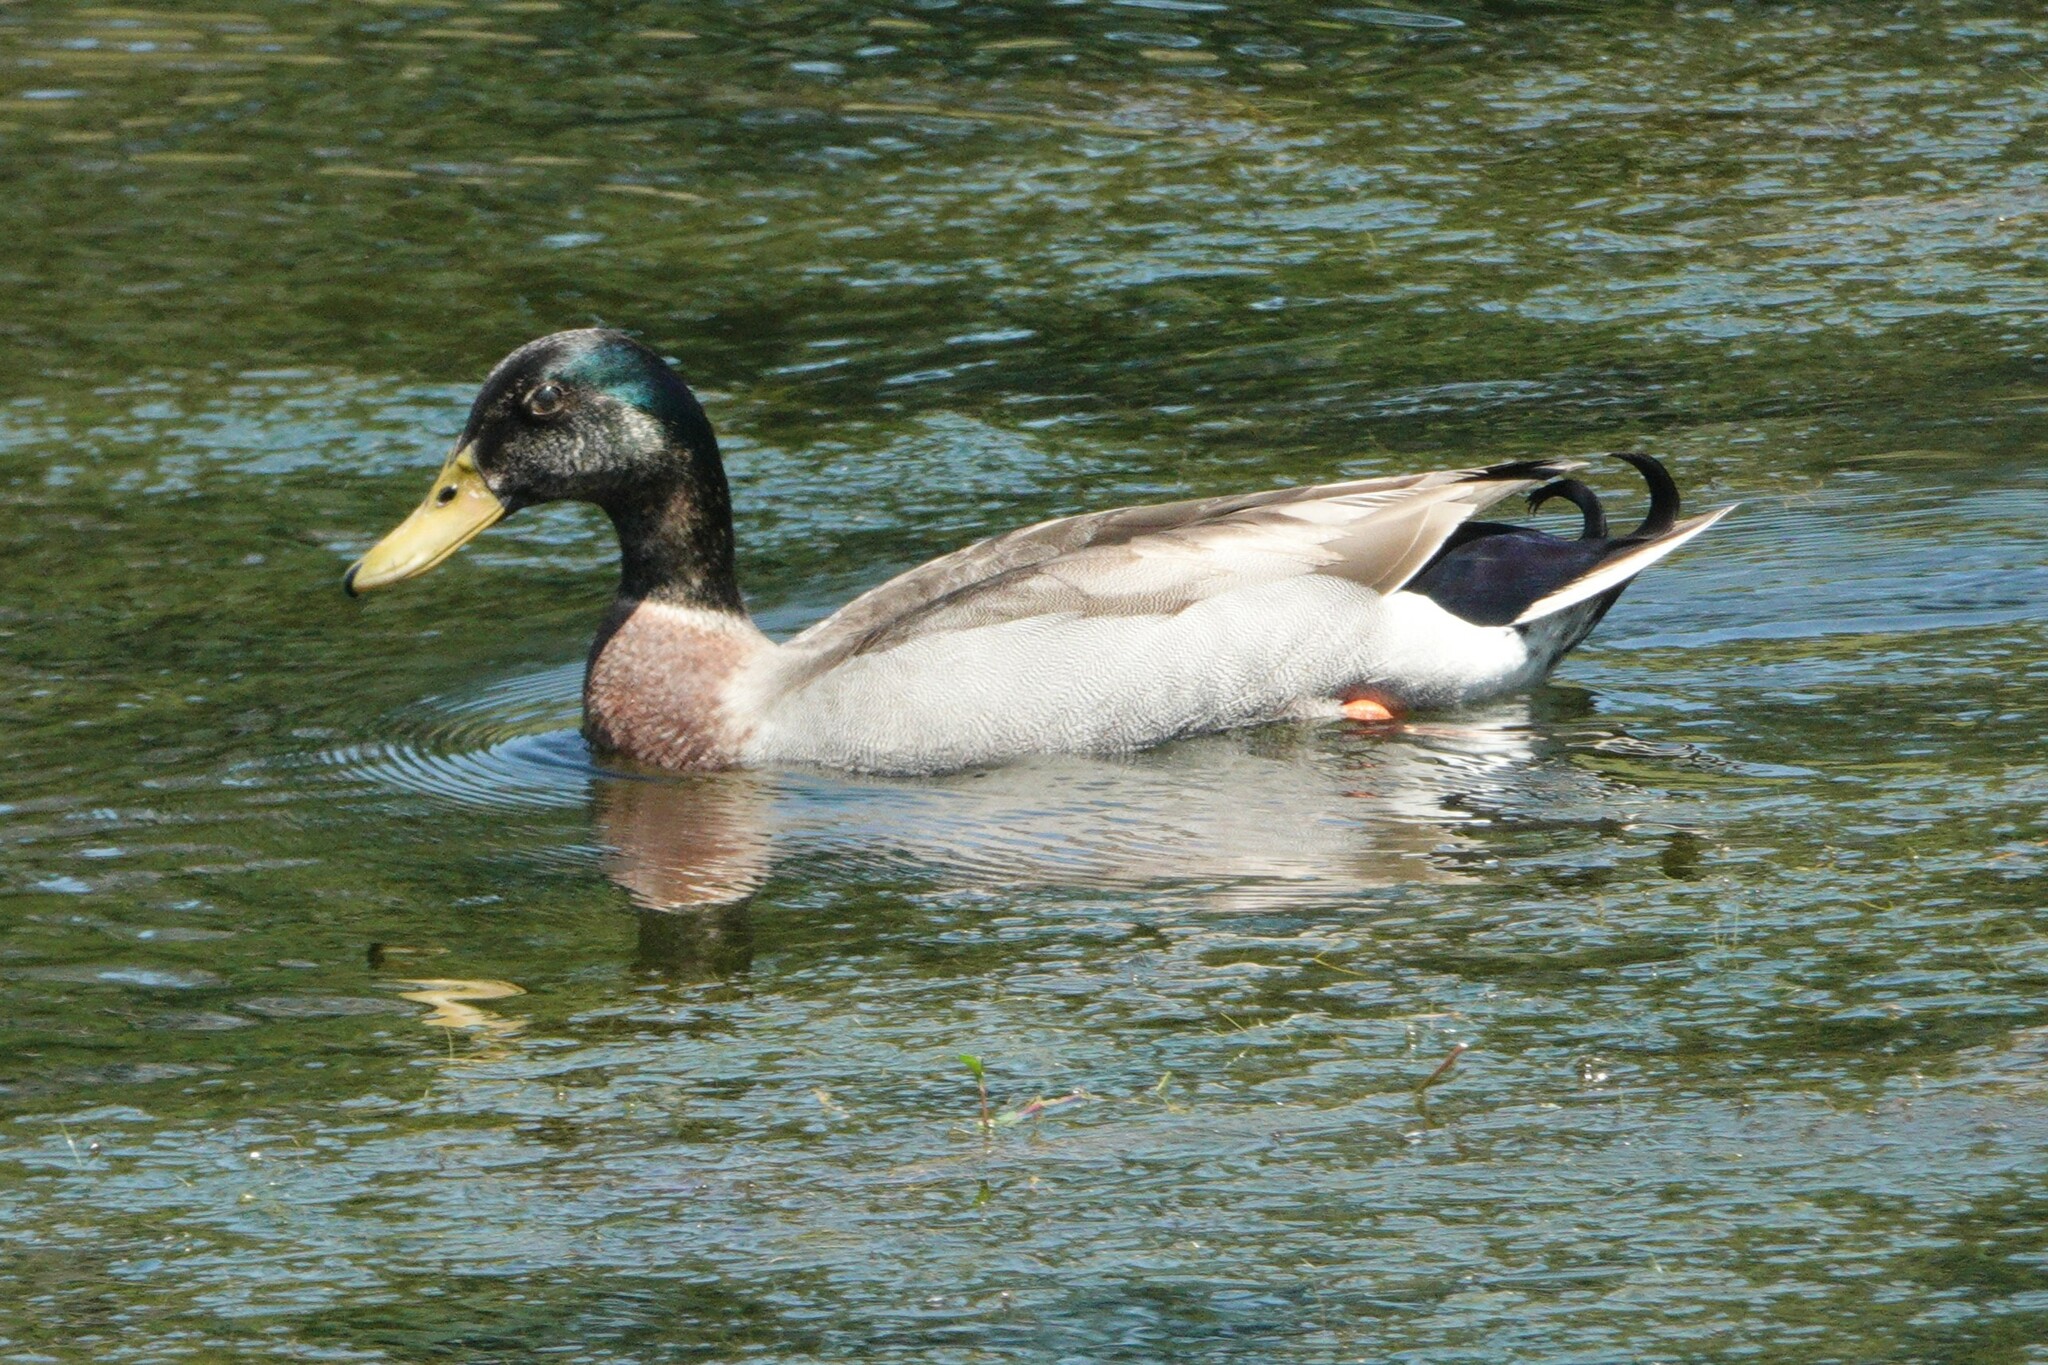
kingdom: Animalia
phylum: Chordata
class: Aves
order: Anseriformes
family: Anatidae
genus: Anas
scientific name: Anas platyrhynchos
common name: Mallard
